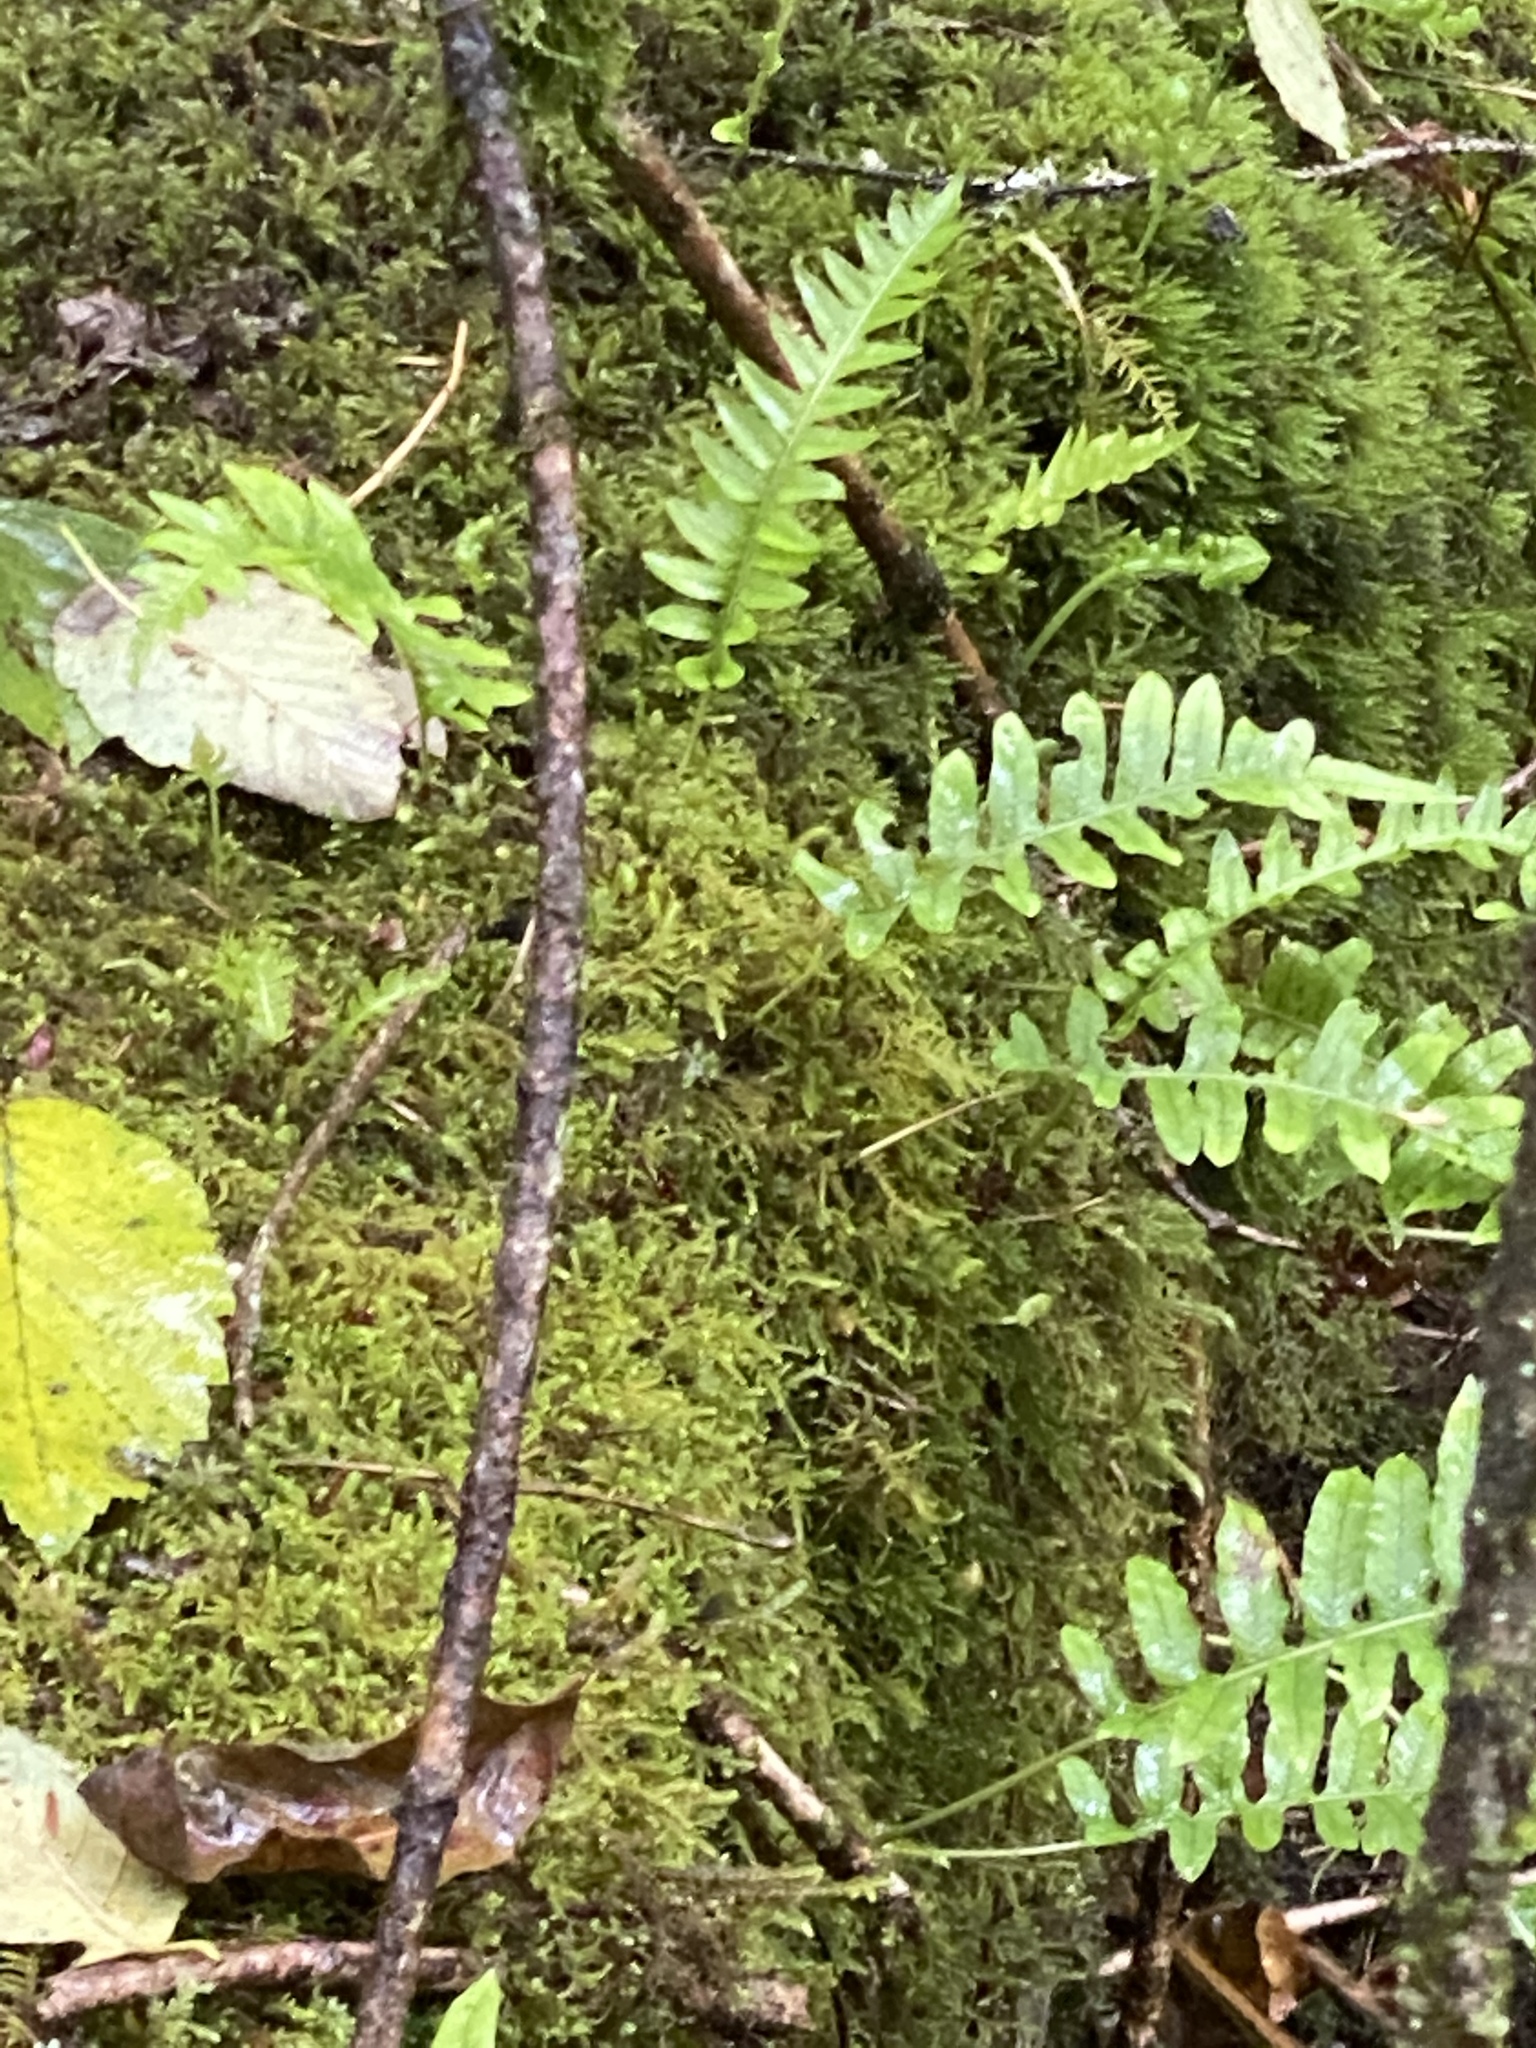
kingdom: Plantae
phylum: Tracheophyta
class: Polypodiopsida
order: Polypodiales
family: Polypodiaceae
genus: Polypodium
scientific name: Polypodium glycyrrhiza
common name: Licorice fern
